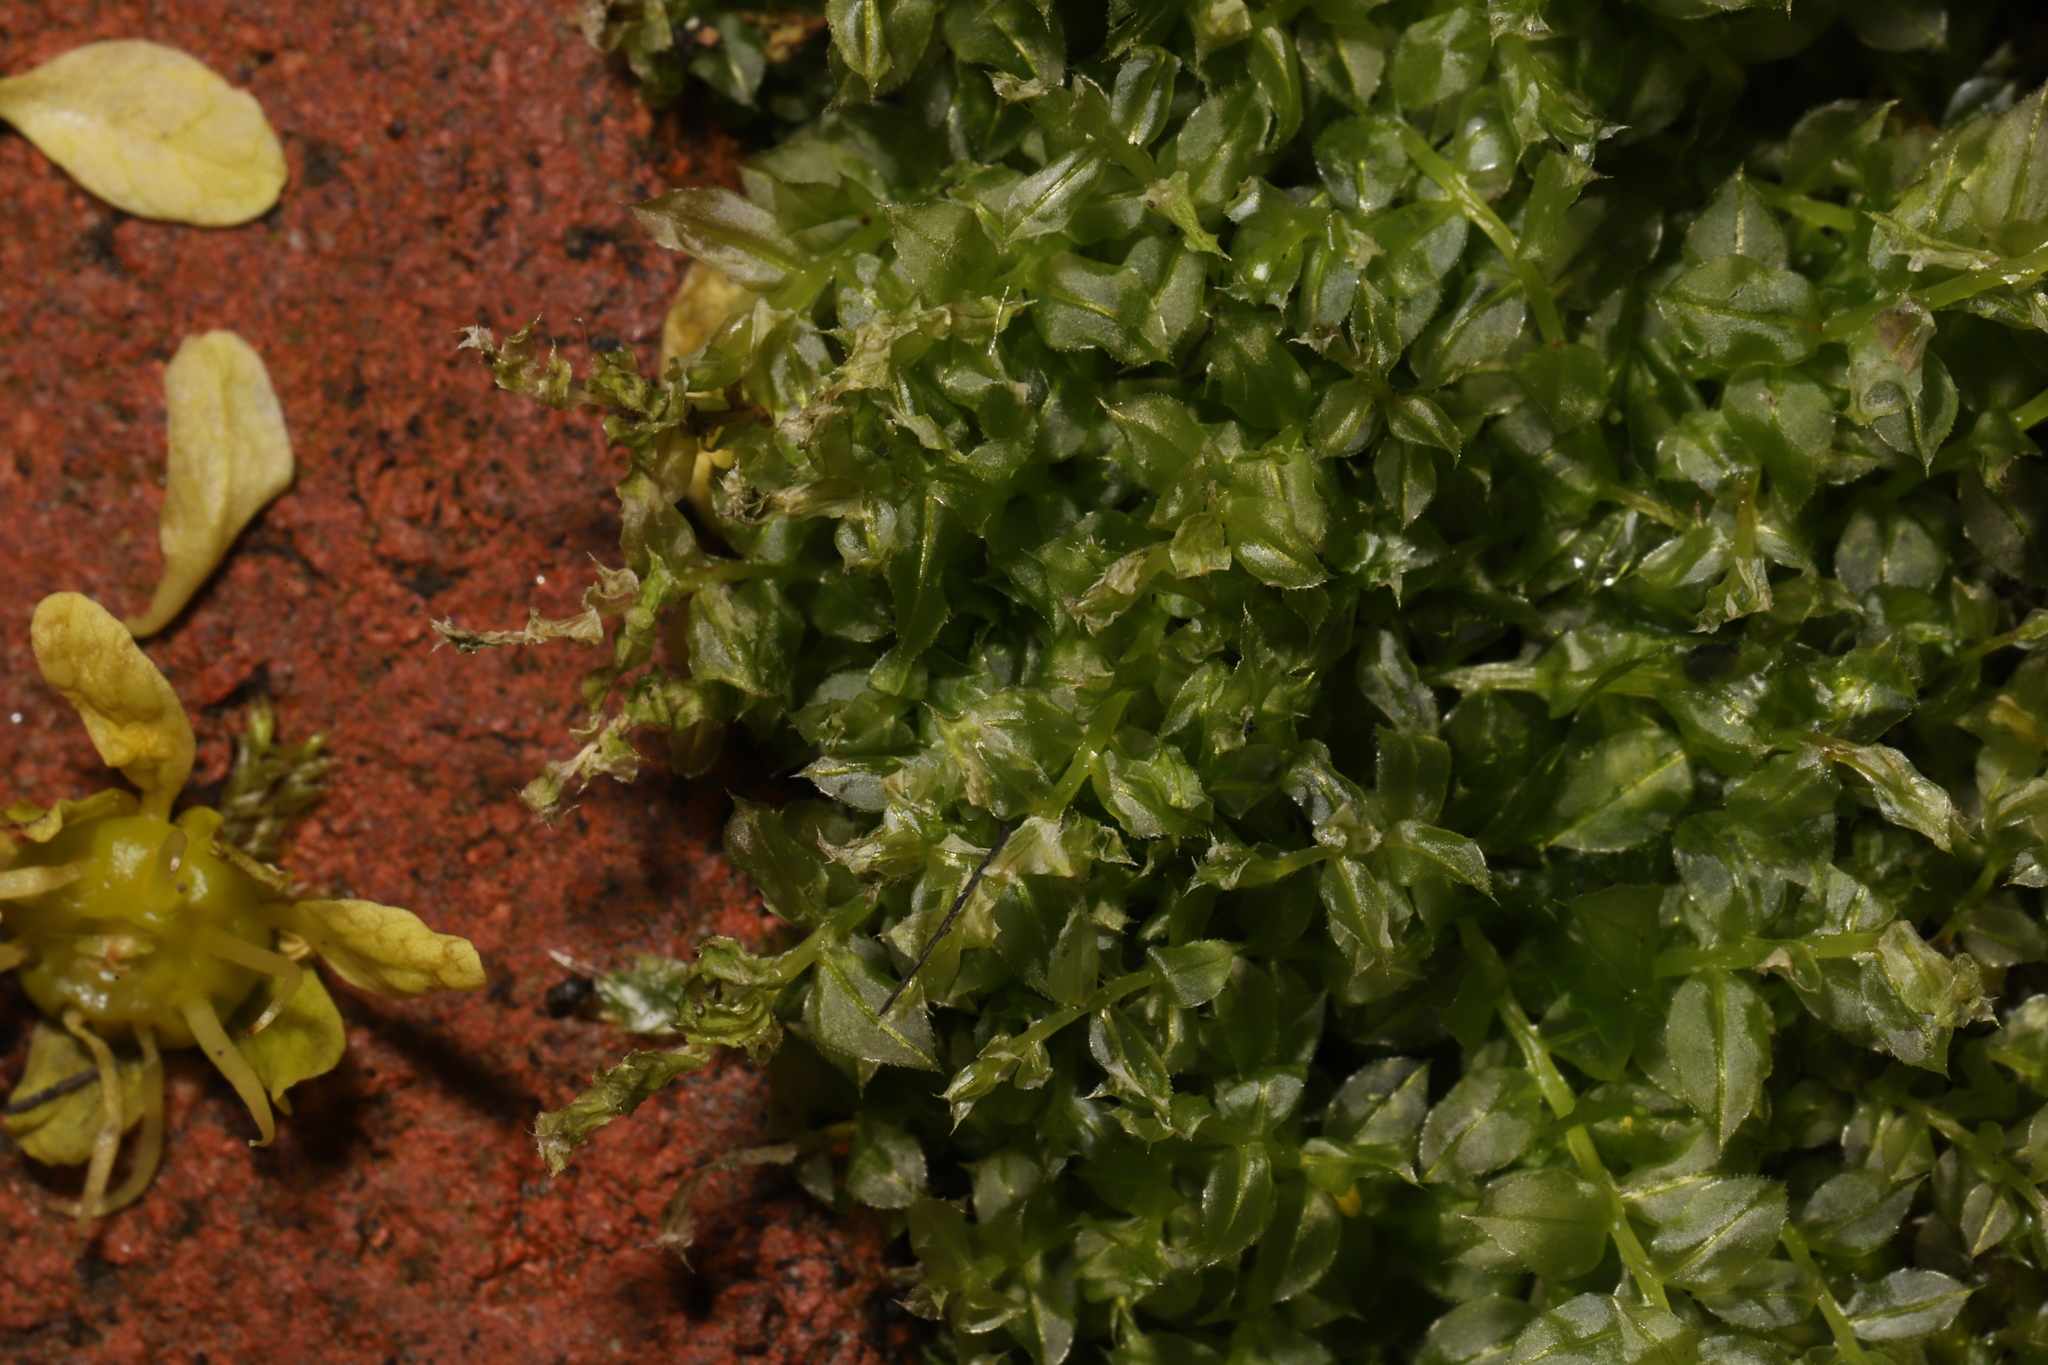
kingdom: Plantae
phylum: Bryophyta
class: Bryopsida
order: Bryales
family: Mniaceae
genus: Plagiomnium
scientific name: Plagiomnium cuspidatum
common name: Woodsy leafy moss
